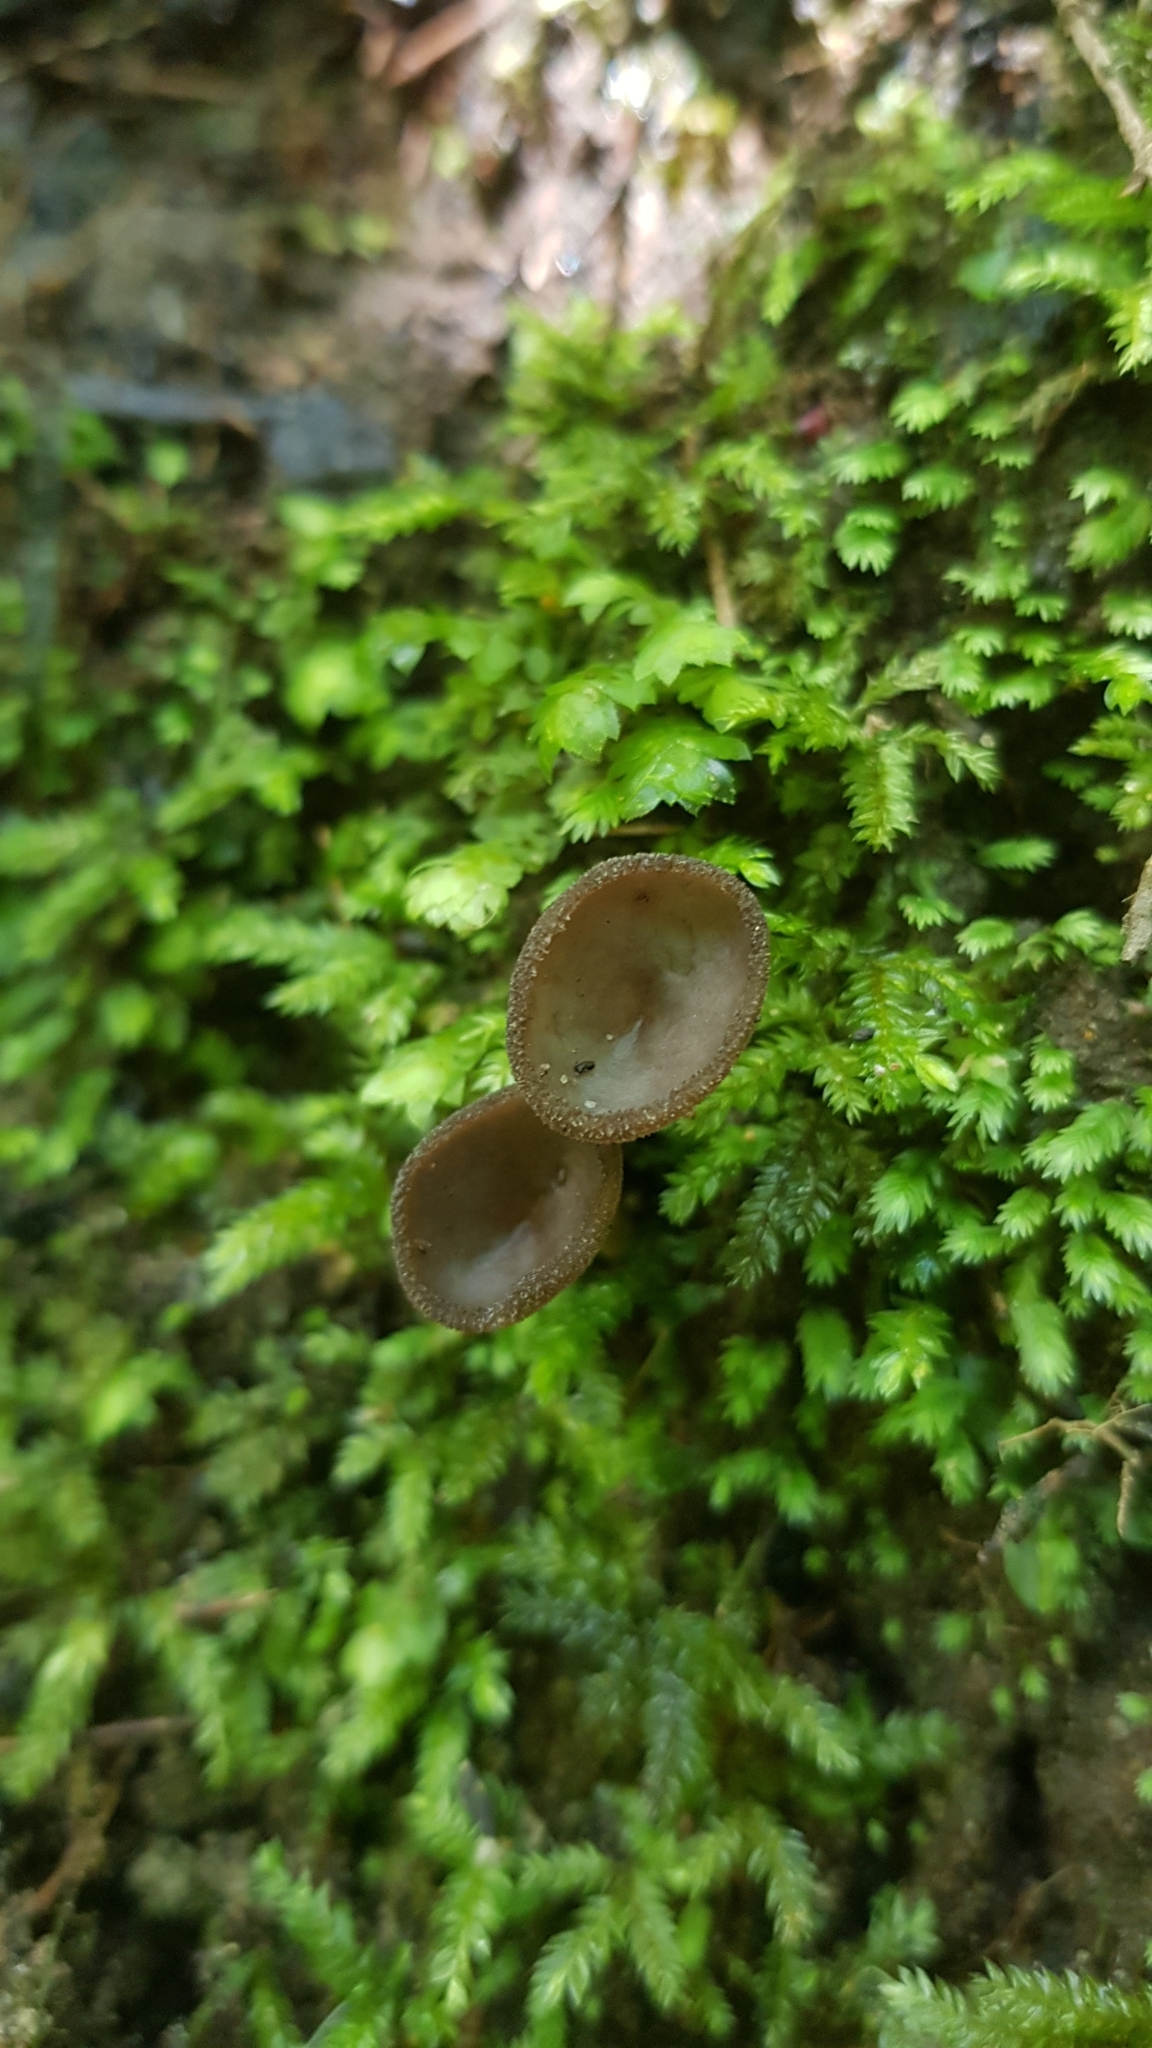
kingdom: Fungi
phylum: Ascomycota
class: Pezizomycetes
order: Pezizales
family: Helvellaceae
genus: Helvella
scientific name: Helvella fibrosa
